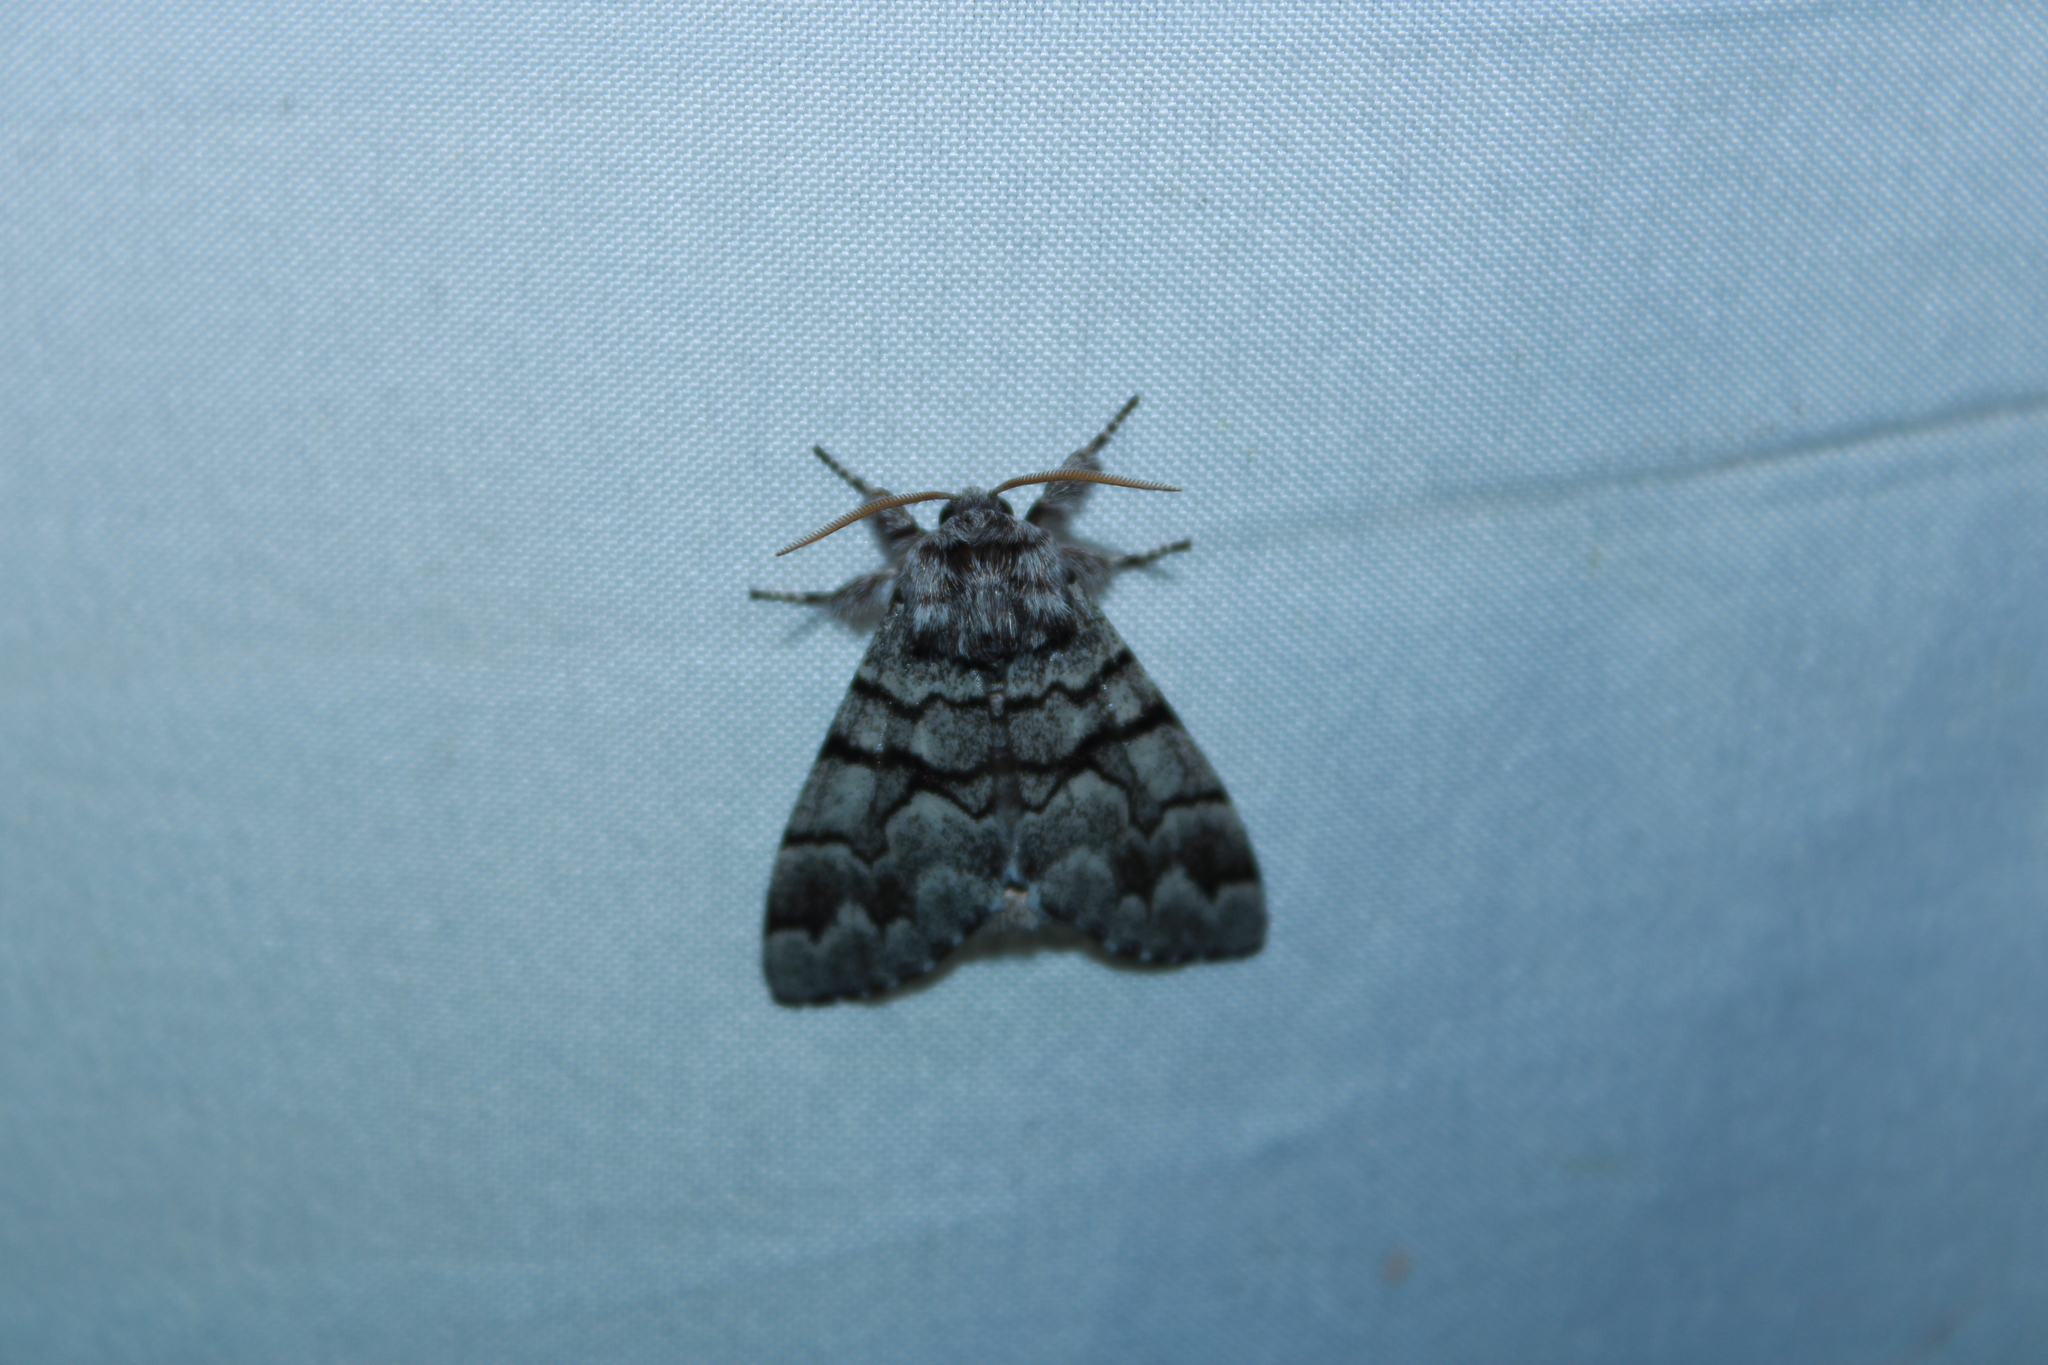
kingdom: Animalia
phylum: Arthropoda
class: Insecta
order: Lepidoptera
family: Noctuidae
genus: Panthea
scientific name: Panthea furcilla
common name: Eastern panthea moth
